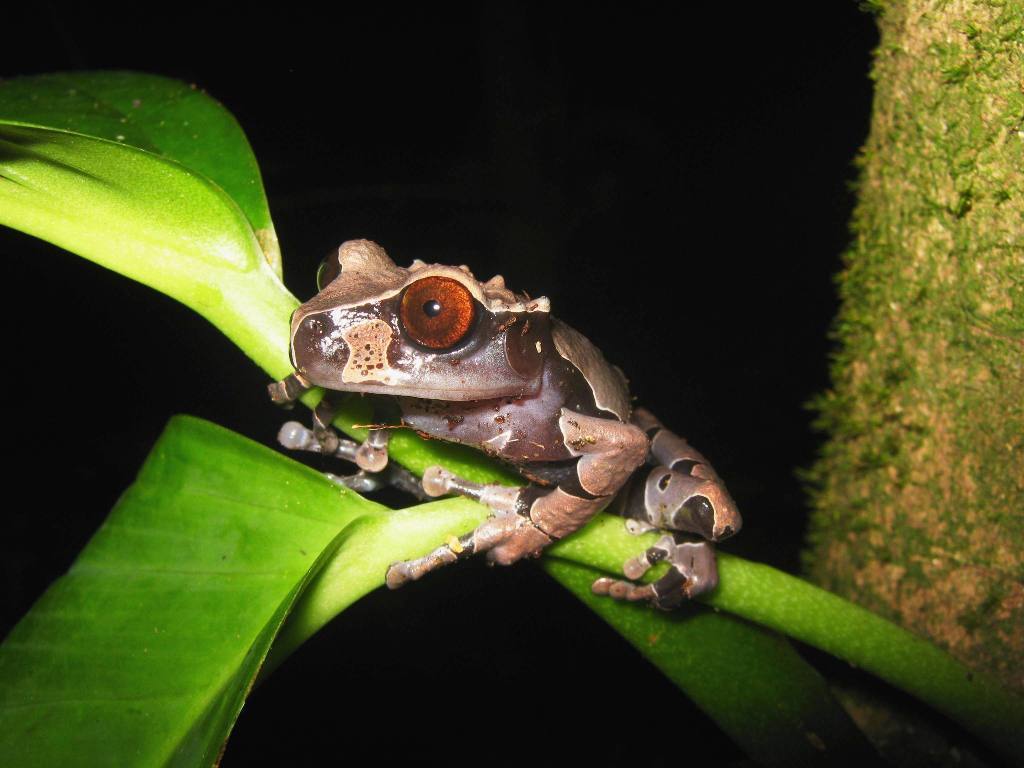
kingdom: Animalia
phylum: Chordata
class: Amphibia
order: Anura
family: Hylidae
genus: Triprion
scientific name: Triprion spinosus
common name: Coronated treefrog
